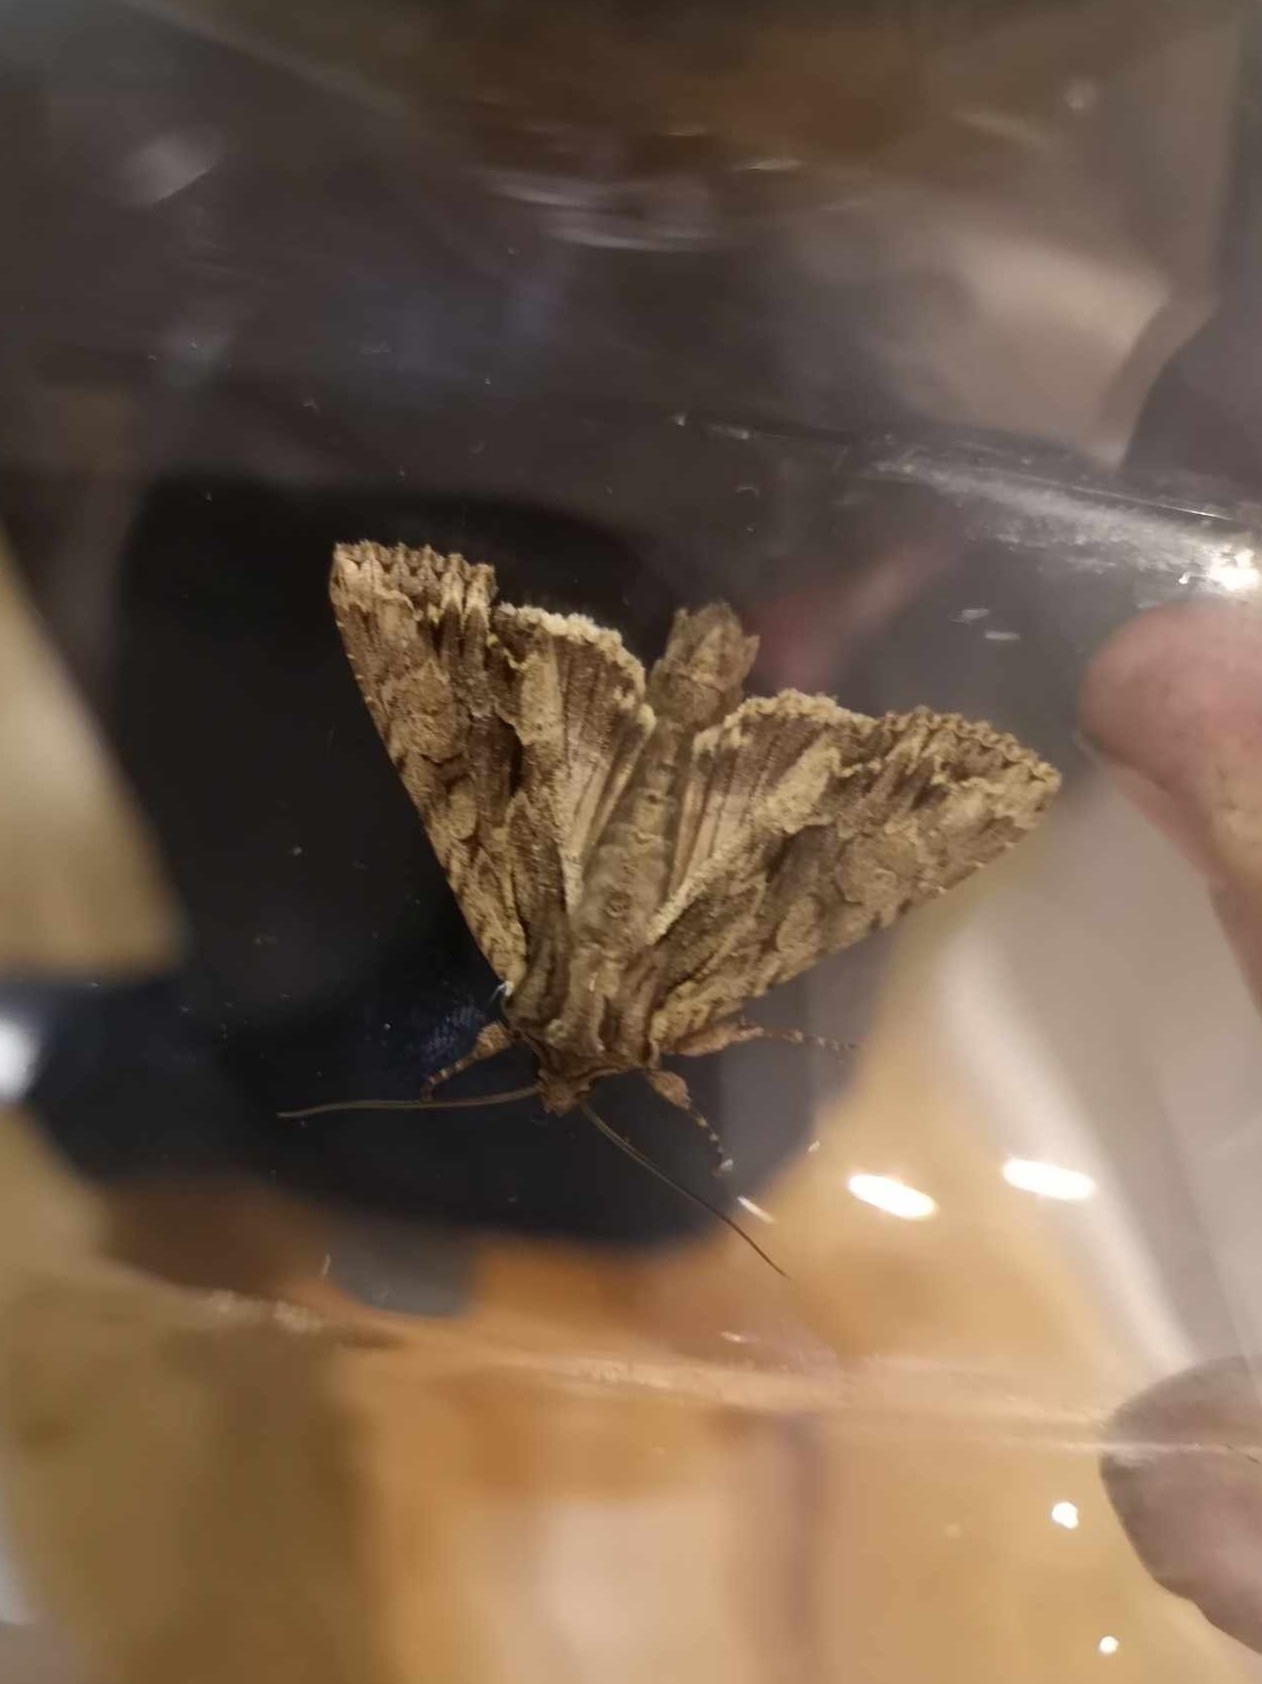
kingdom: Animalia
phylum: Arthropoda
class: Insecta
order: Lepidoptera
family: Noctuidae
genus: Apamea
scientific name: Apamea monoglypha
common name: Dark arches
